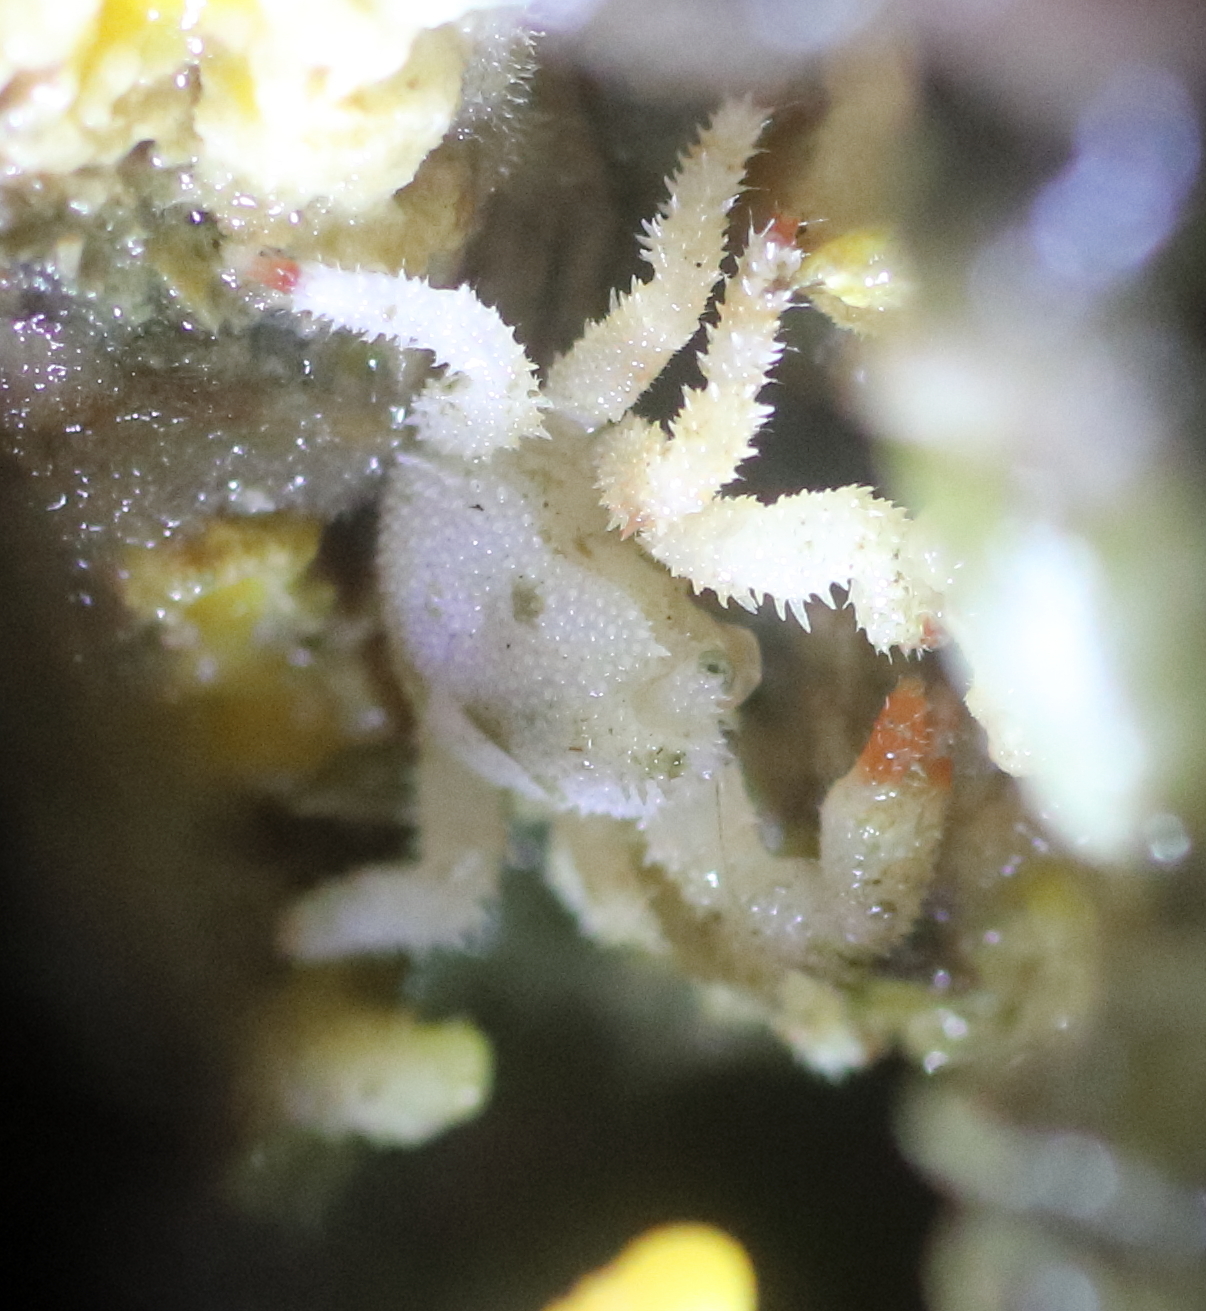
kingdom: Animalia
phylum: Arthropoda
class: Malacostraca
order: Decapoda
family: Hapalogastridae
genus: Acantholithodes
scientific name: Acantholithodes hispidus
